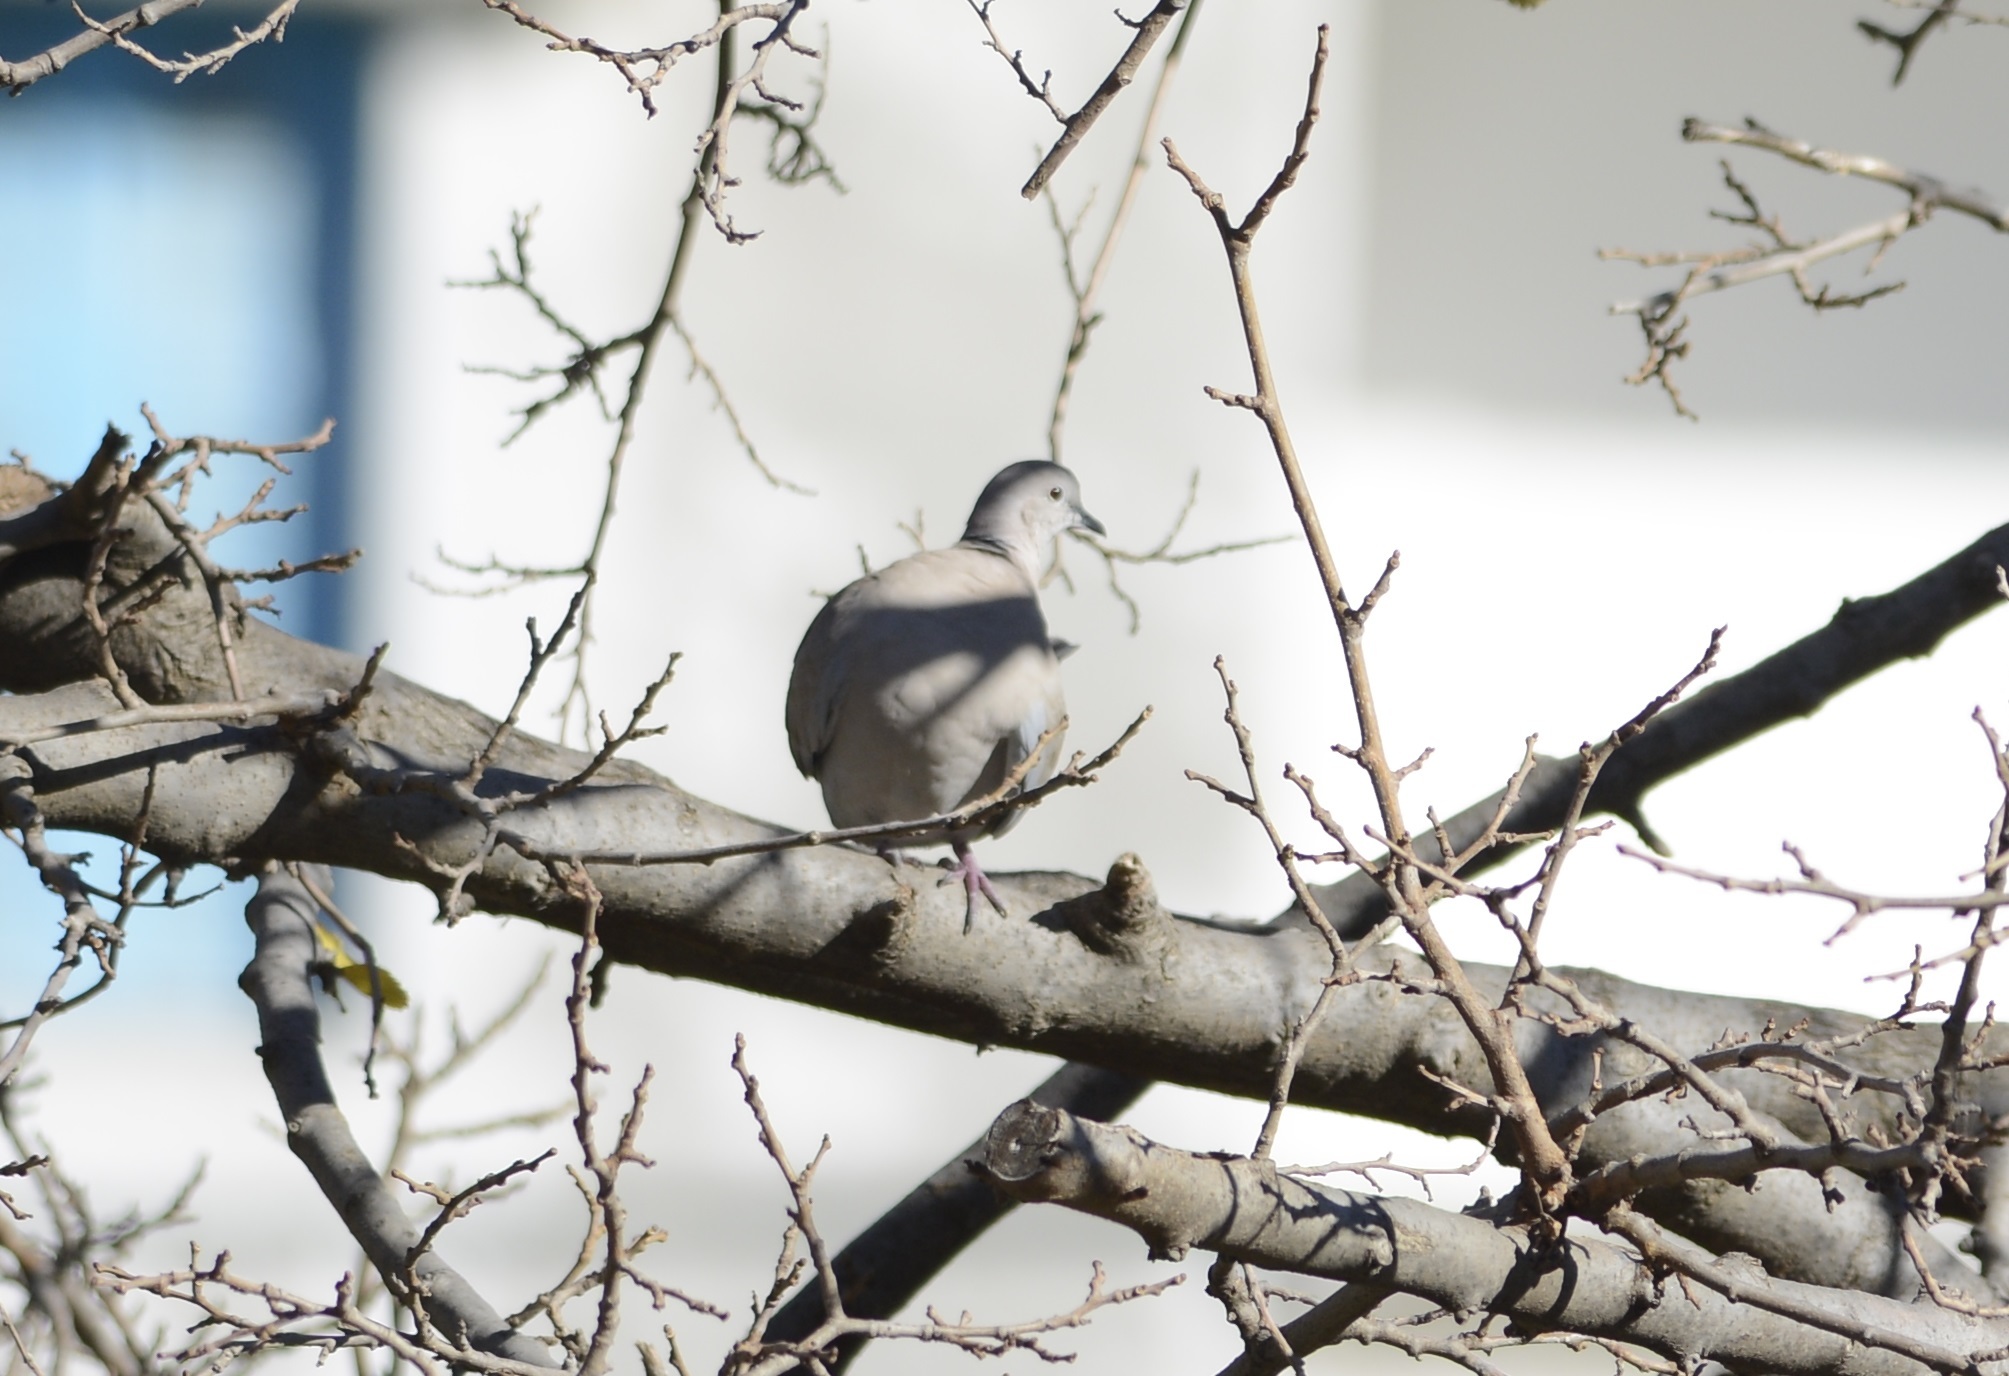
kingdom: Animalia
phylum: Chordata
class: Aves
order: Columbiformes
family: Columbidae
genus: Streptopelia
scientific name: Streptopelia decaocto
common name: Eurasian collared dove
